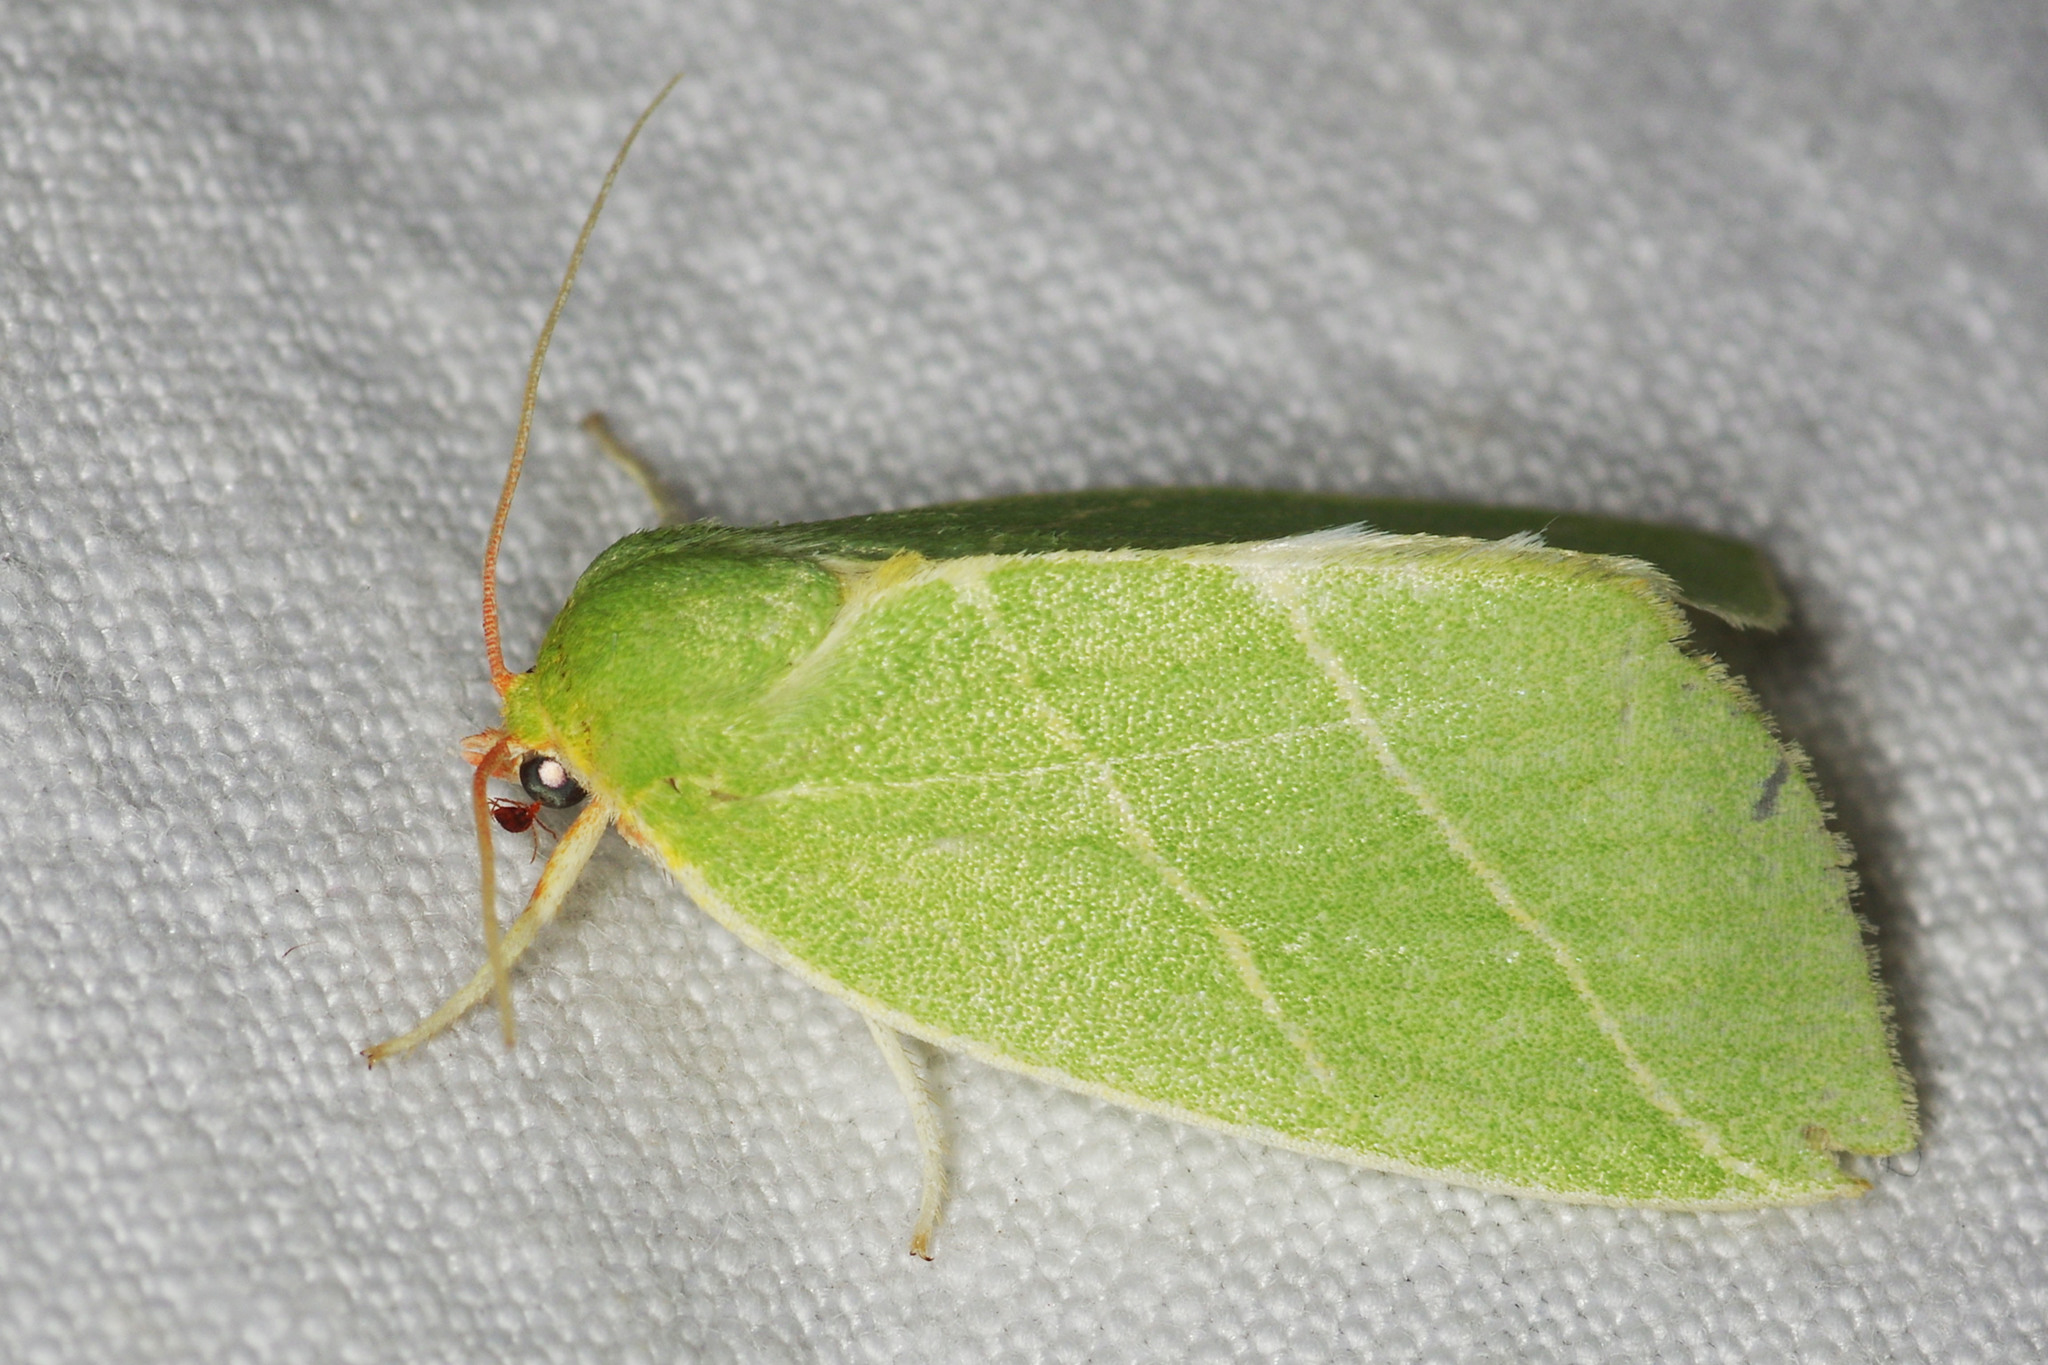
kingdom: Animalia
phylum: Arthropoda
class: Insecta
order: Lepidoptera
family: Nolidae
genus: Bena
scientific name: Bena bicolorana
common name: Scarce silver-lines
